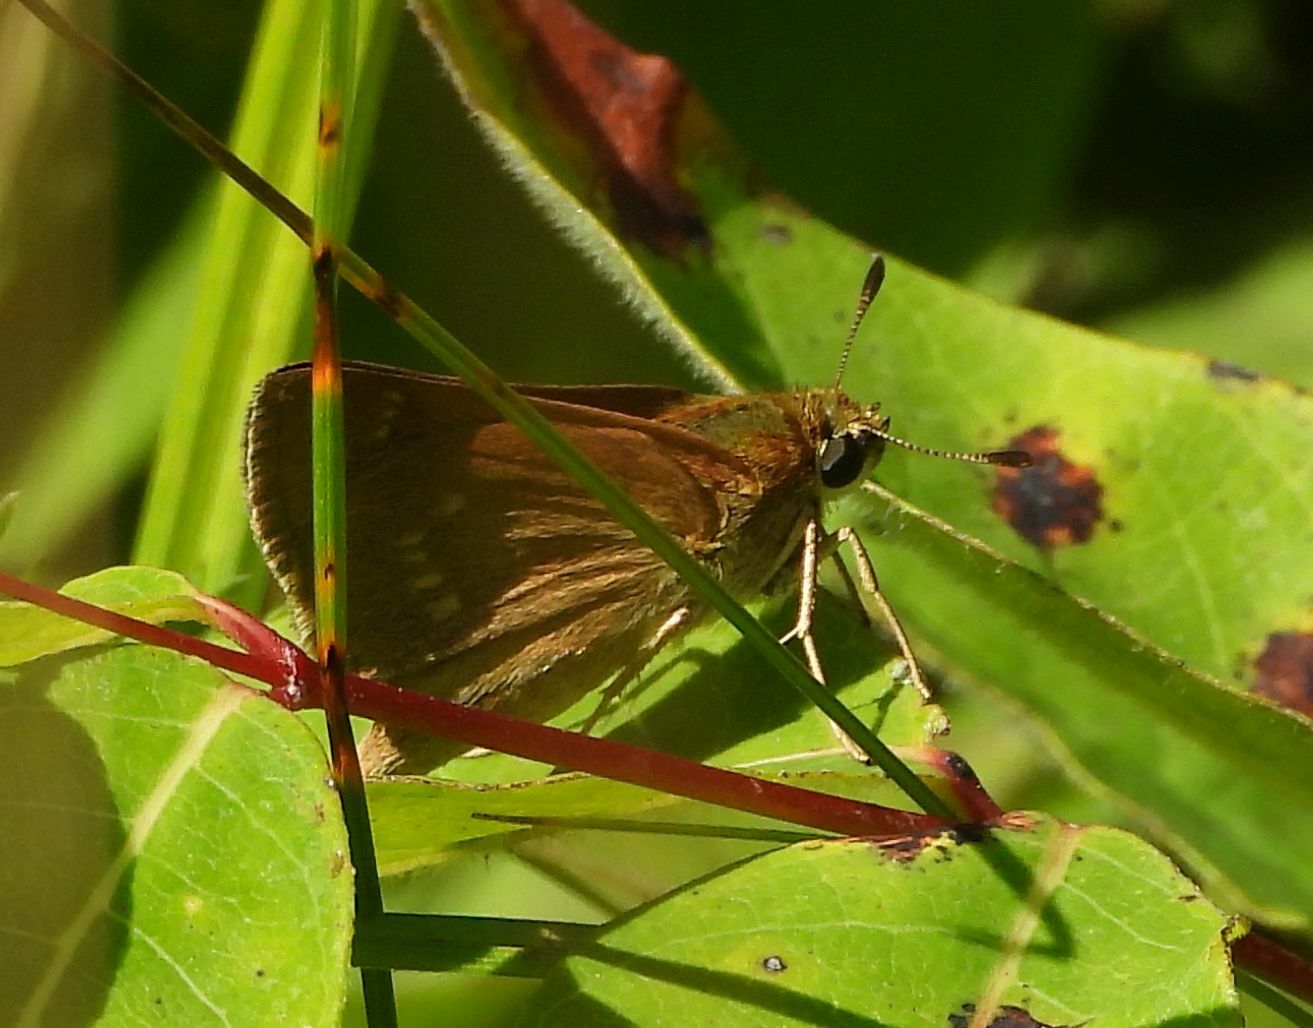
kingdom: Animalia
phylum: Arthropoda
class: Insecta
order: Lepidoptera
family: Hesperiidae
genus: Polites
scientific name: Polites origenes
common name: Crossline skipper
